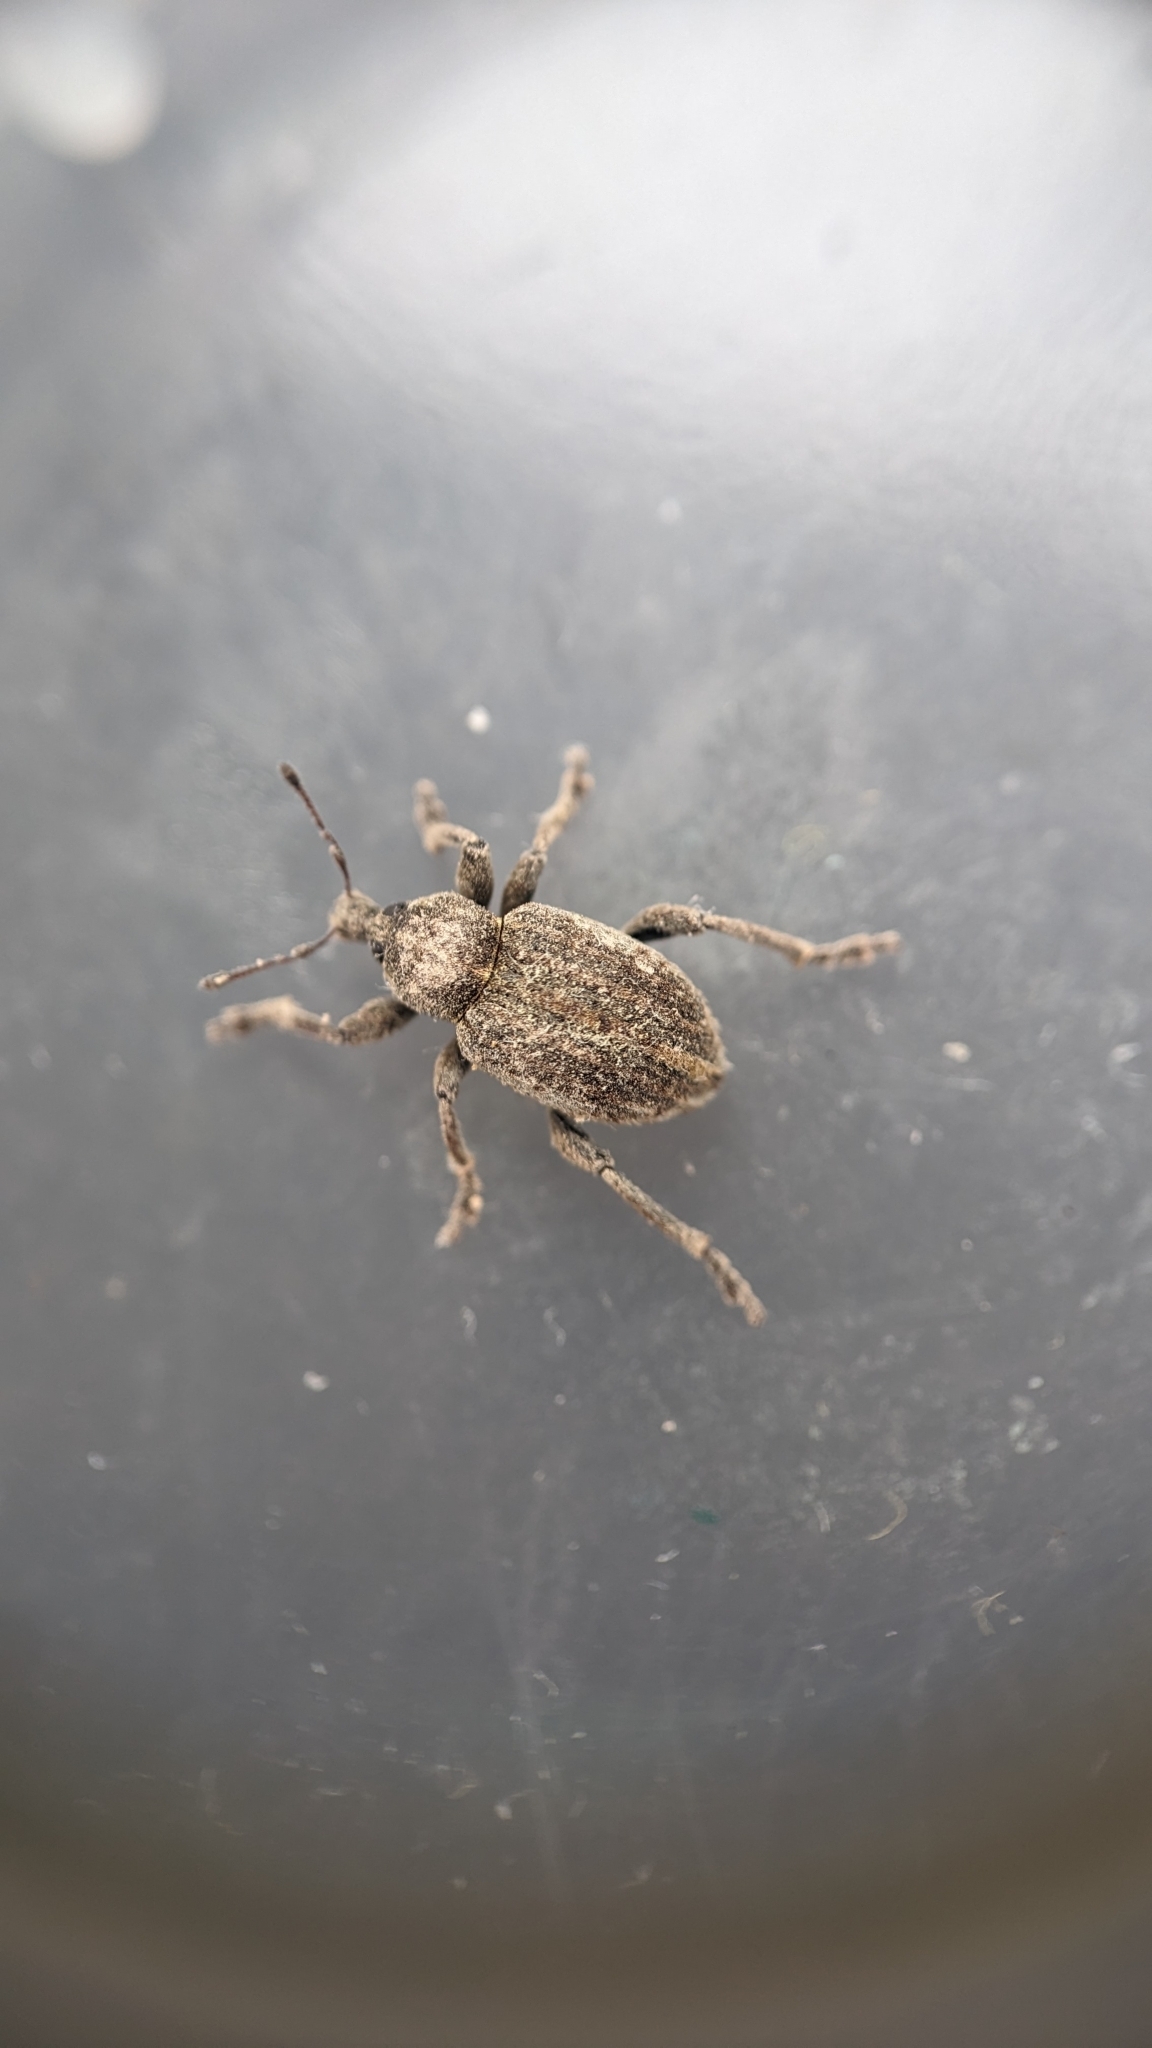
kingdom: Animalia
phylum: Arthropoda
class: Insecta
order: Coleoptera
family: Curculionidae
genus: Brachypera
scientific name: Brachypera zoilus
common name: Clover leaf weevil
